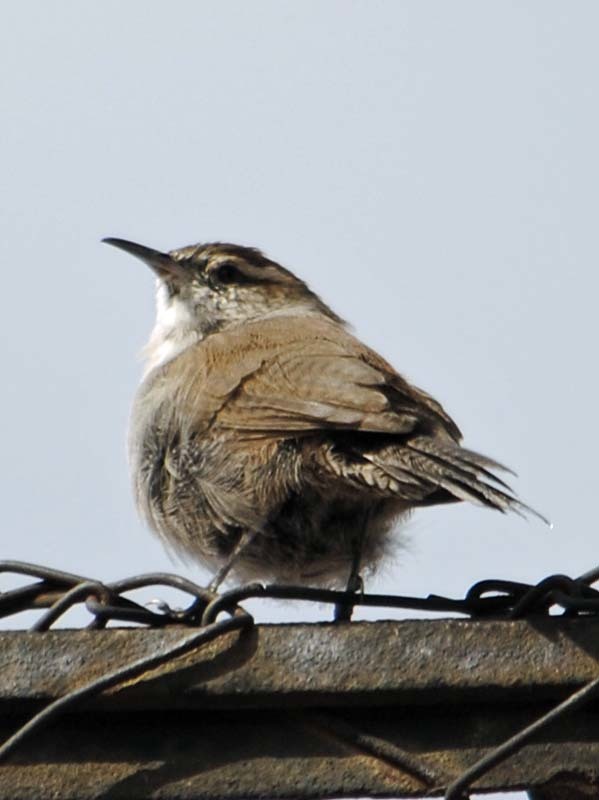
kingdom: Animalia
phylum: Chordata
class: Aves
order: Passeriformes
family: Troglodytidae
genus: Thryomanes
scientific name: Thryomanes bewickii
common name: Bewick's wren
